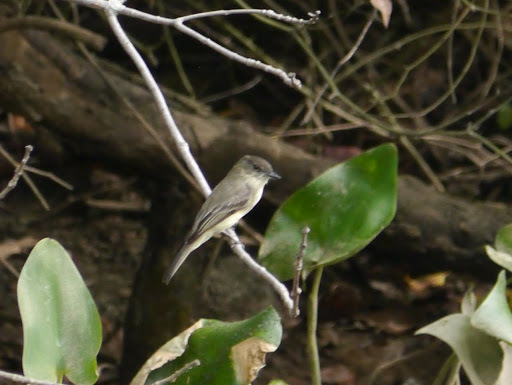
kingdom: Animalia
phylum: Chordata
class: Aves
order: Passeriformes
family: Tyrannidae
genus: Sayornis
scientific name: Sayornis phoebe
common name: Eastern phoebe
